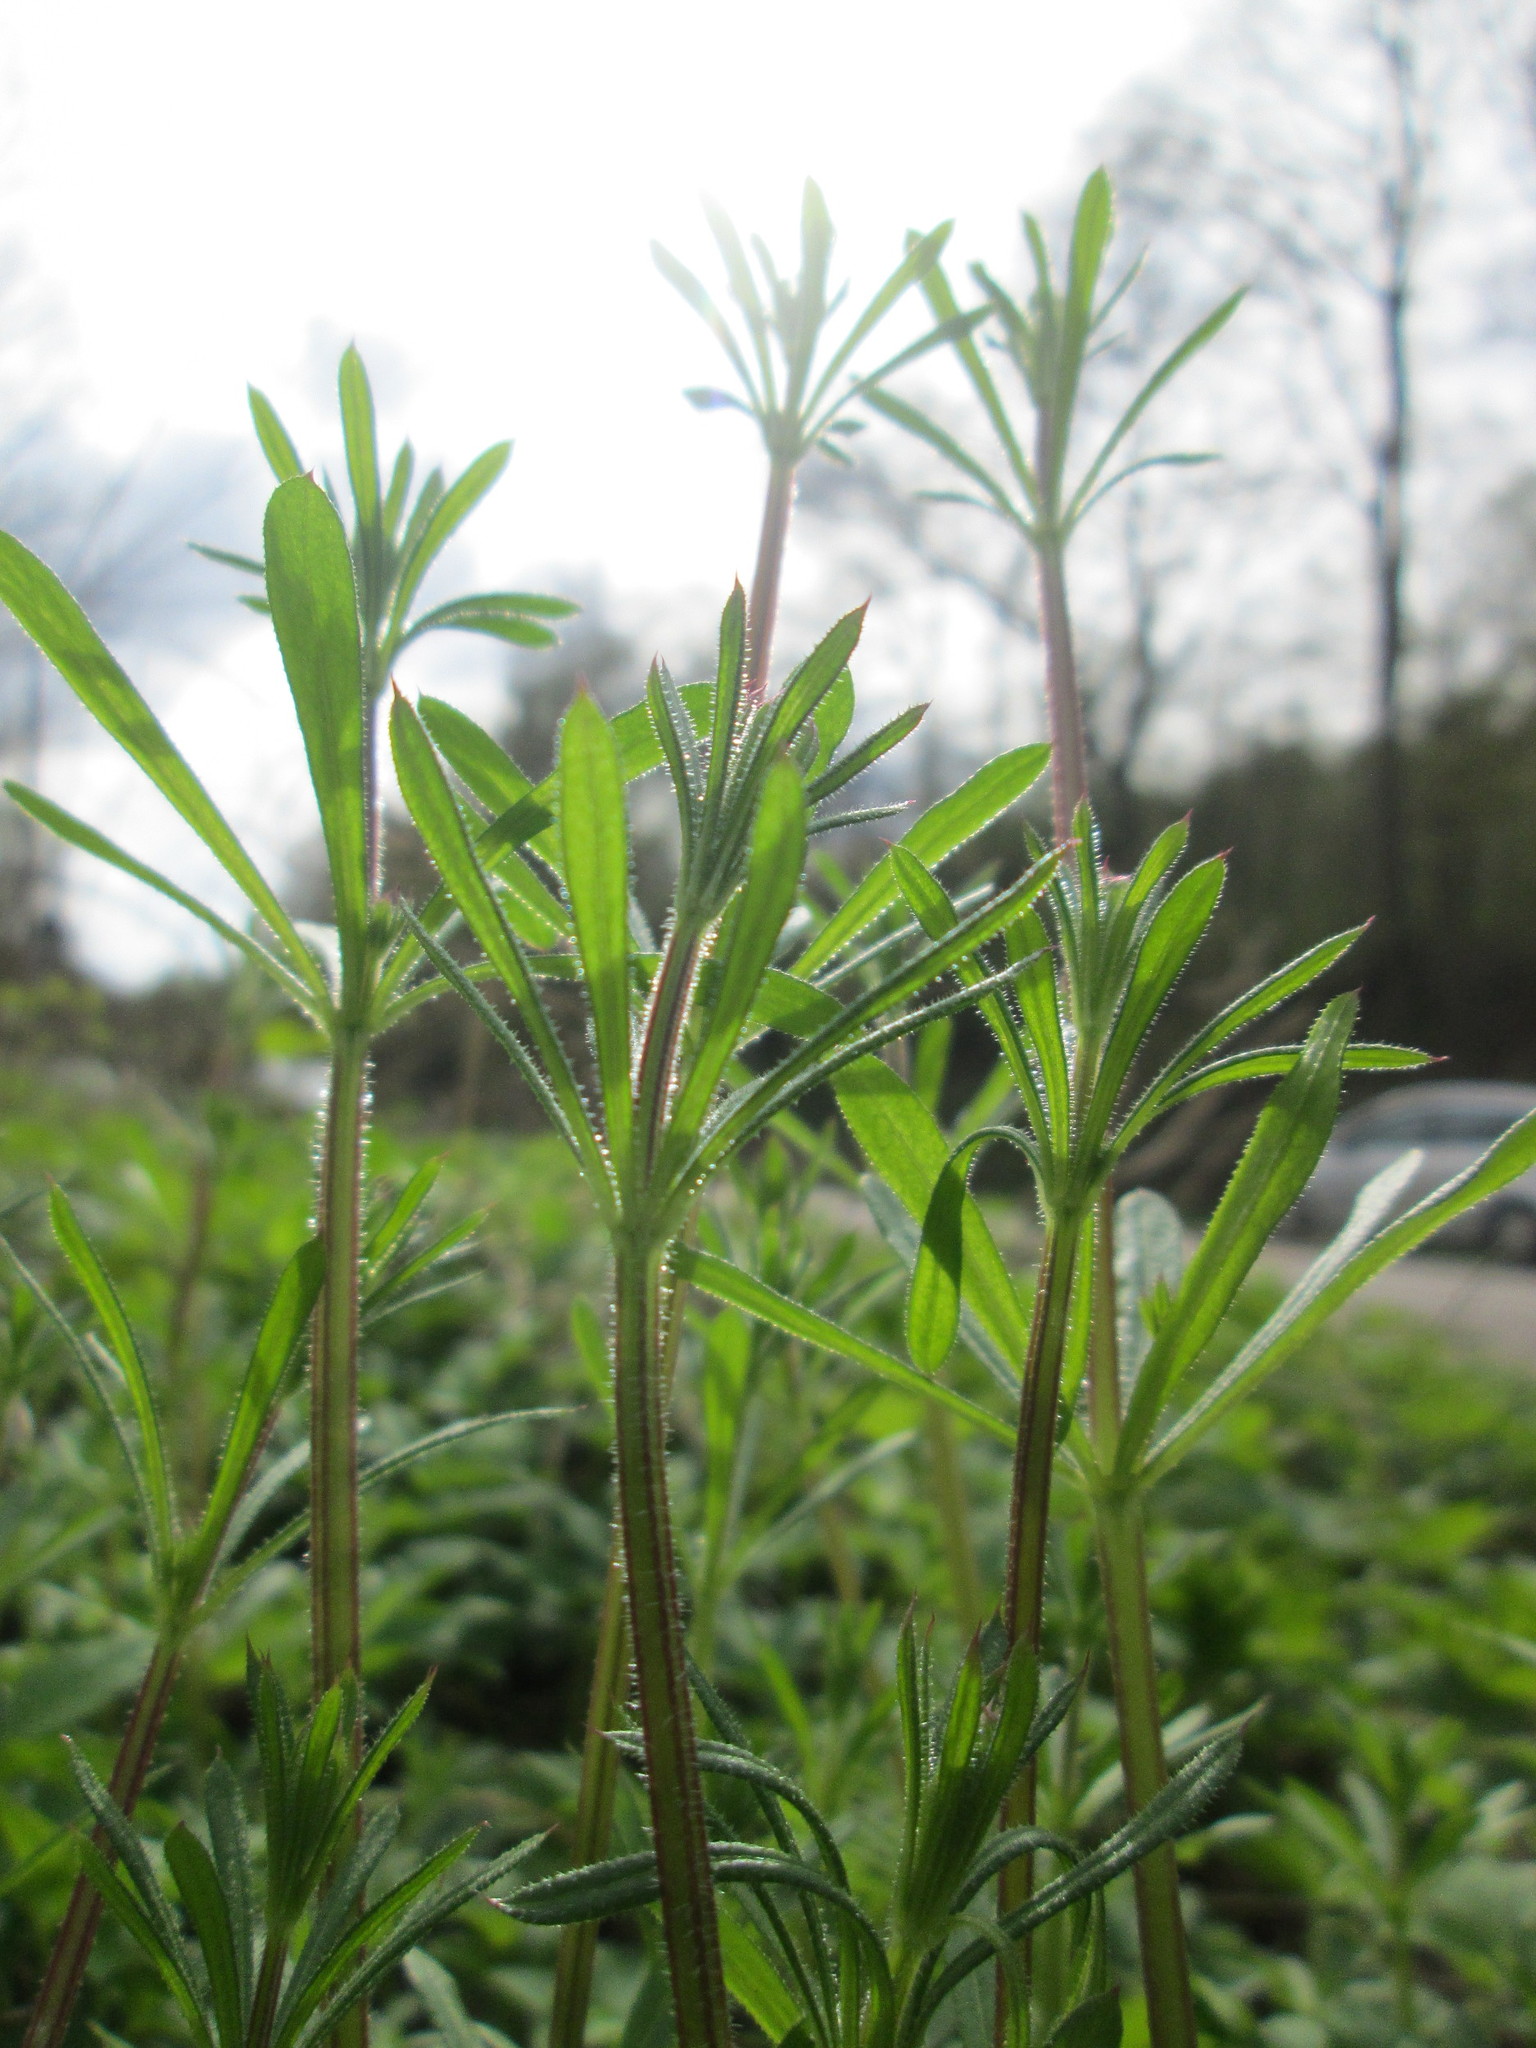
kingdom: Plantae
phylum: Tracheophyta
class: Magnoliopsida
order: Gentianales
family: Rubiaceae
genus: Galium
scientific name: Galium aparine
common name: Cleavers
